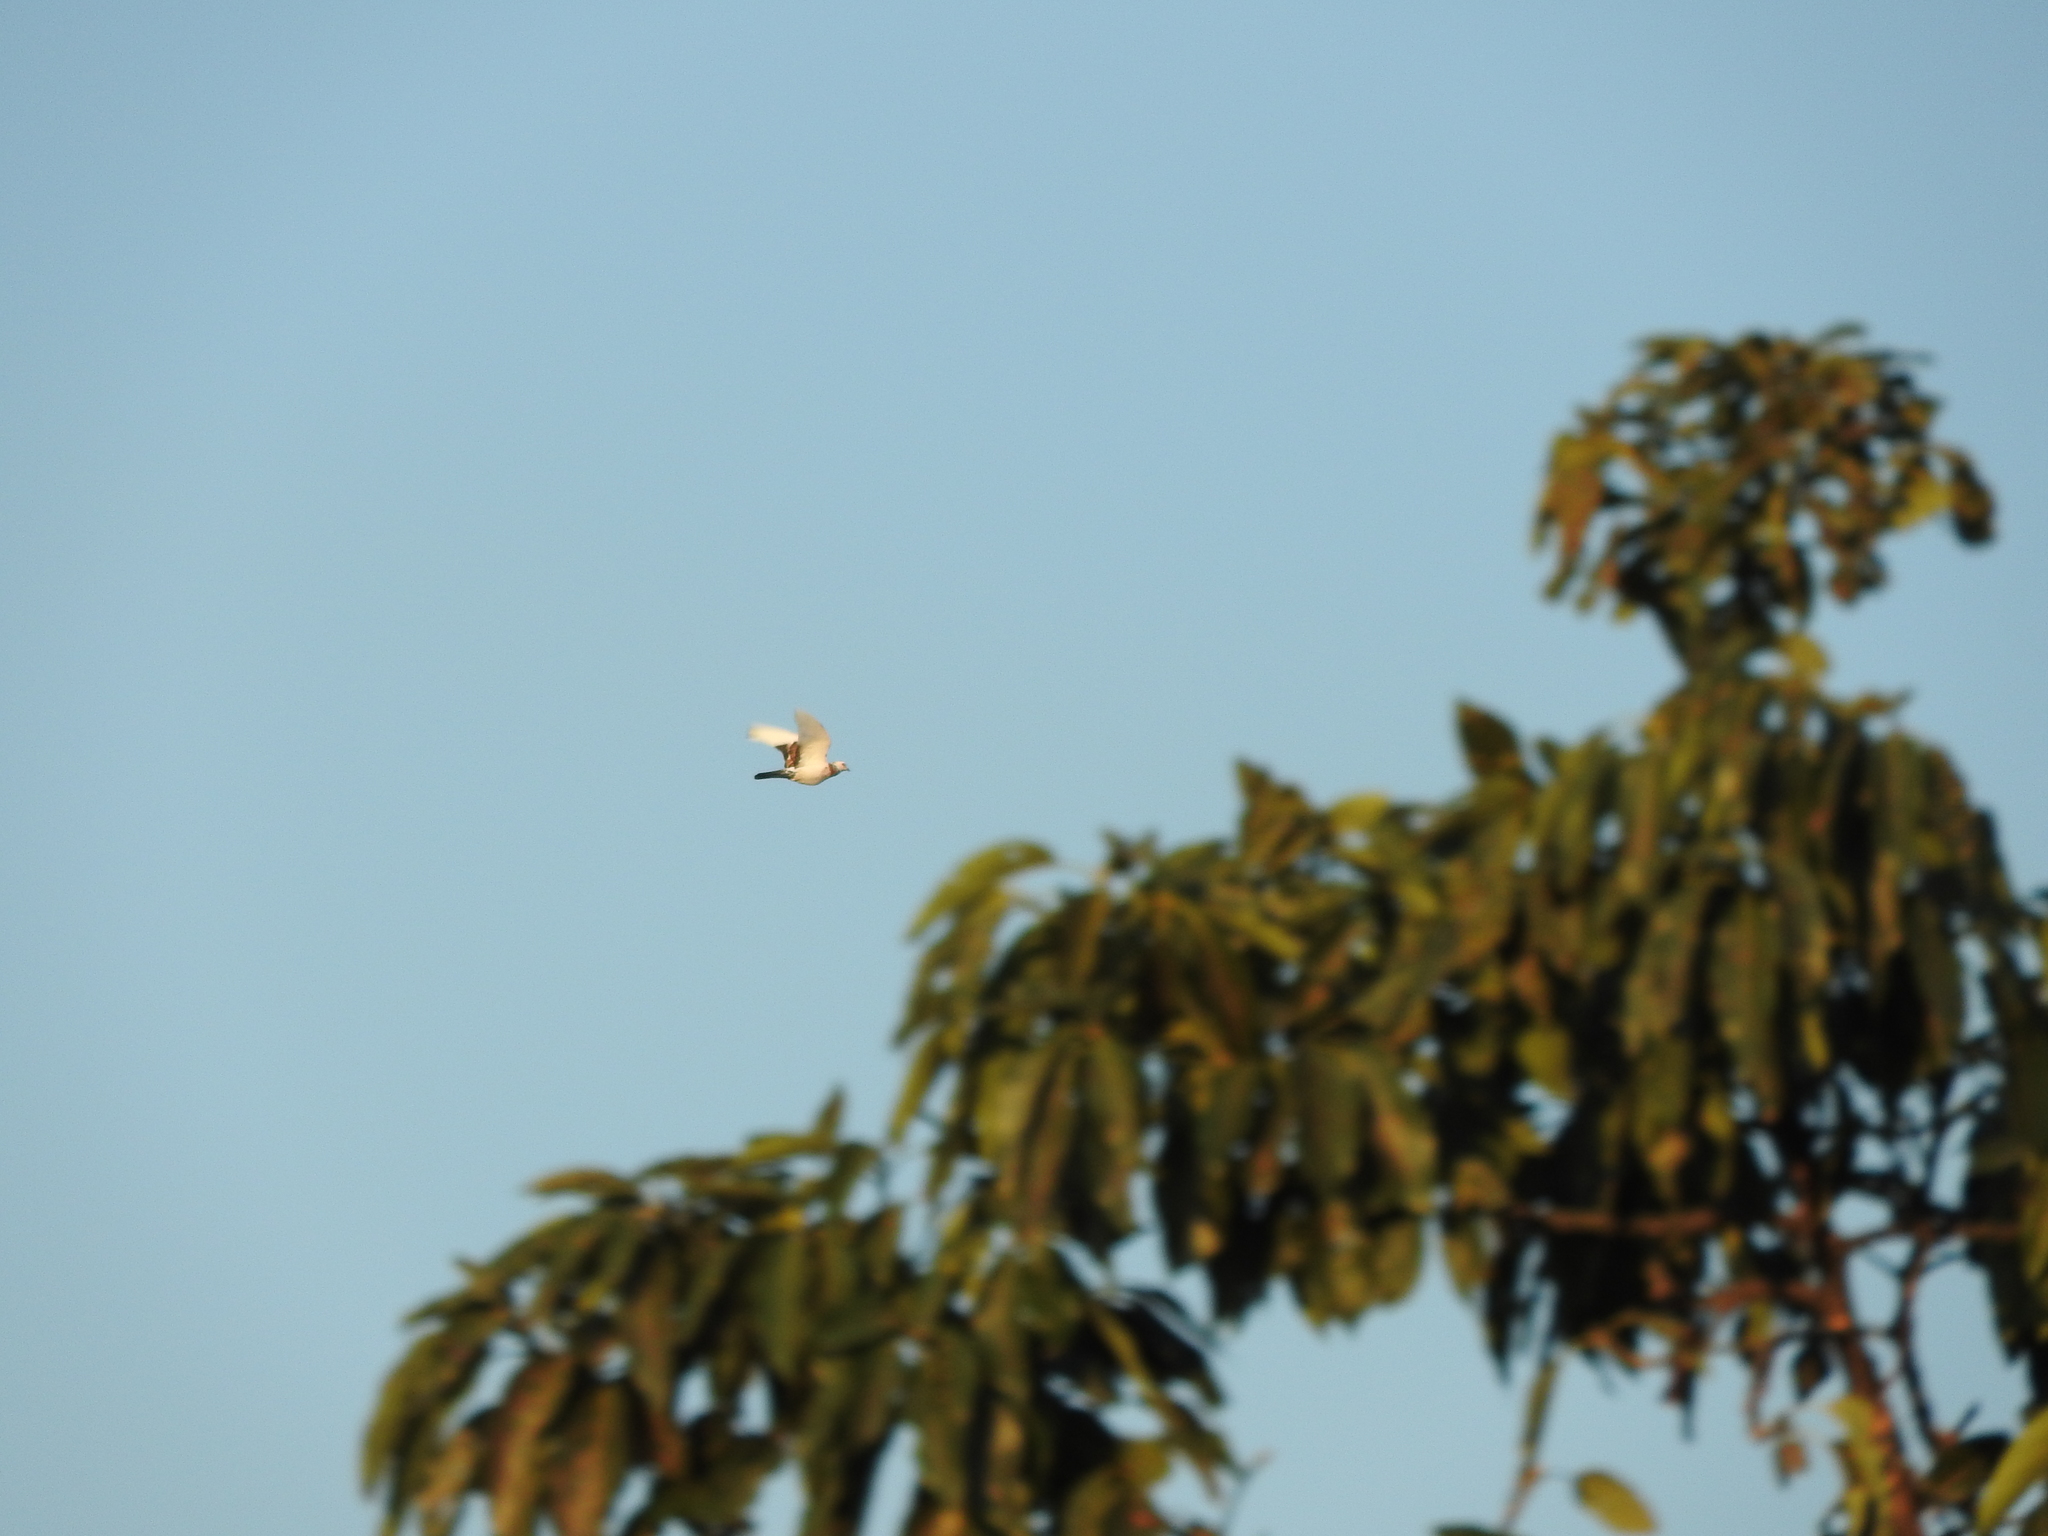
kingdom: Animalia
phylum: Chordata
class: Aves
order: Columbiformes
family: Columbidae
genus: Columba
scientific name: Columba livia
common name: Rock pigeon
